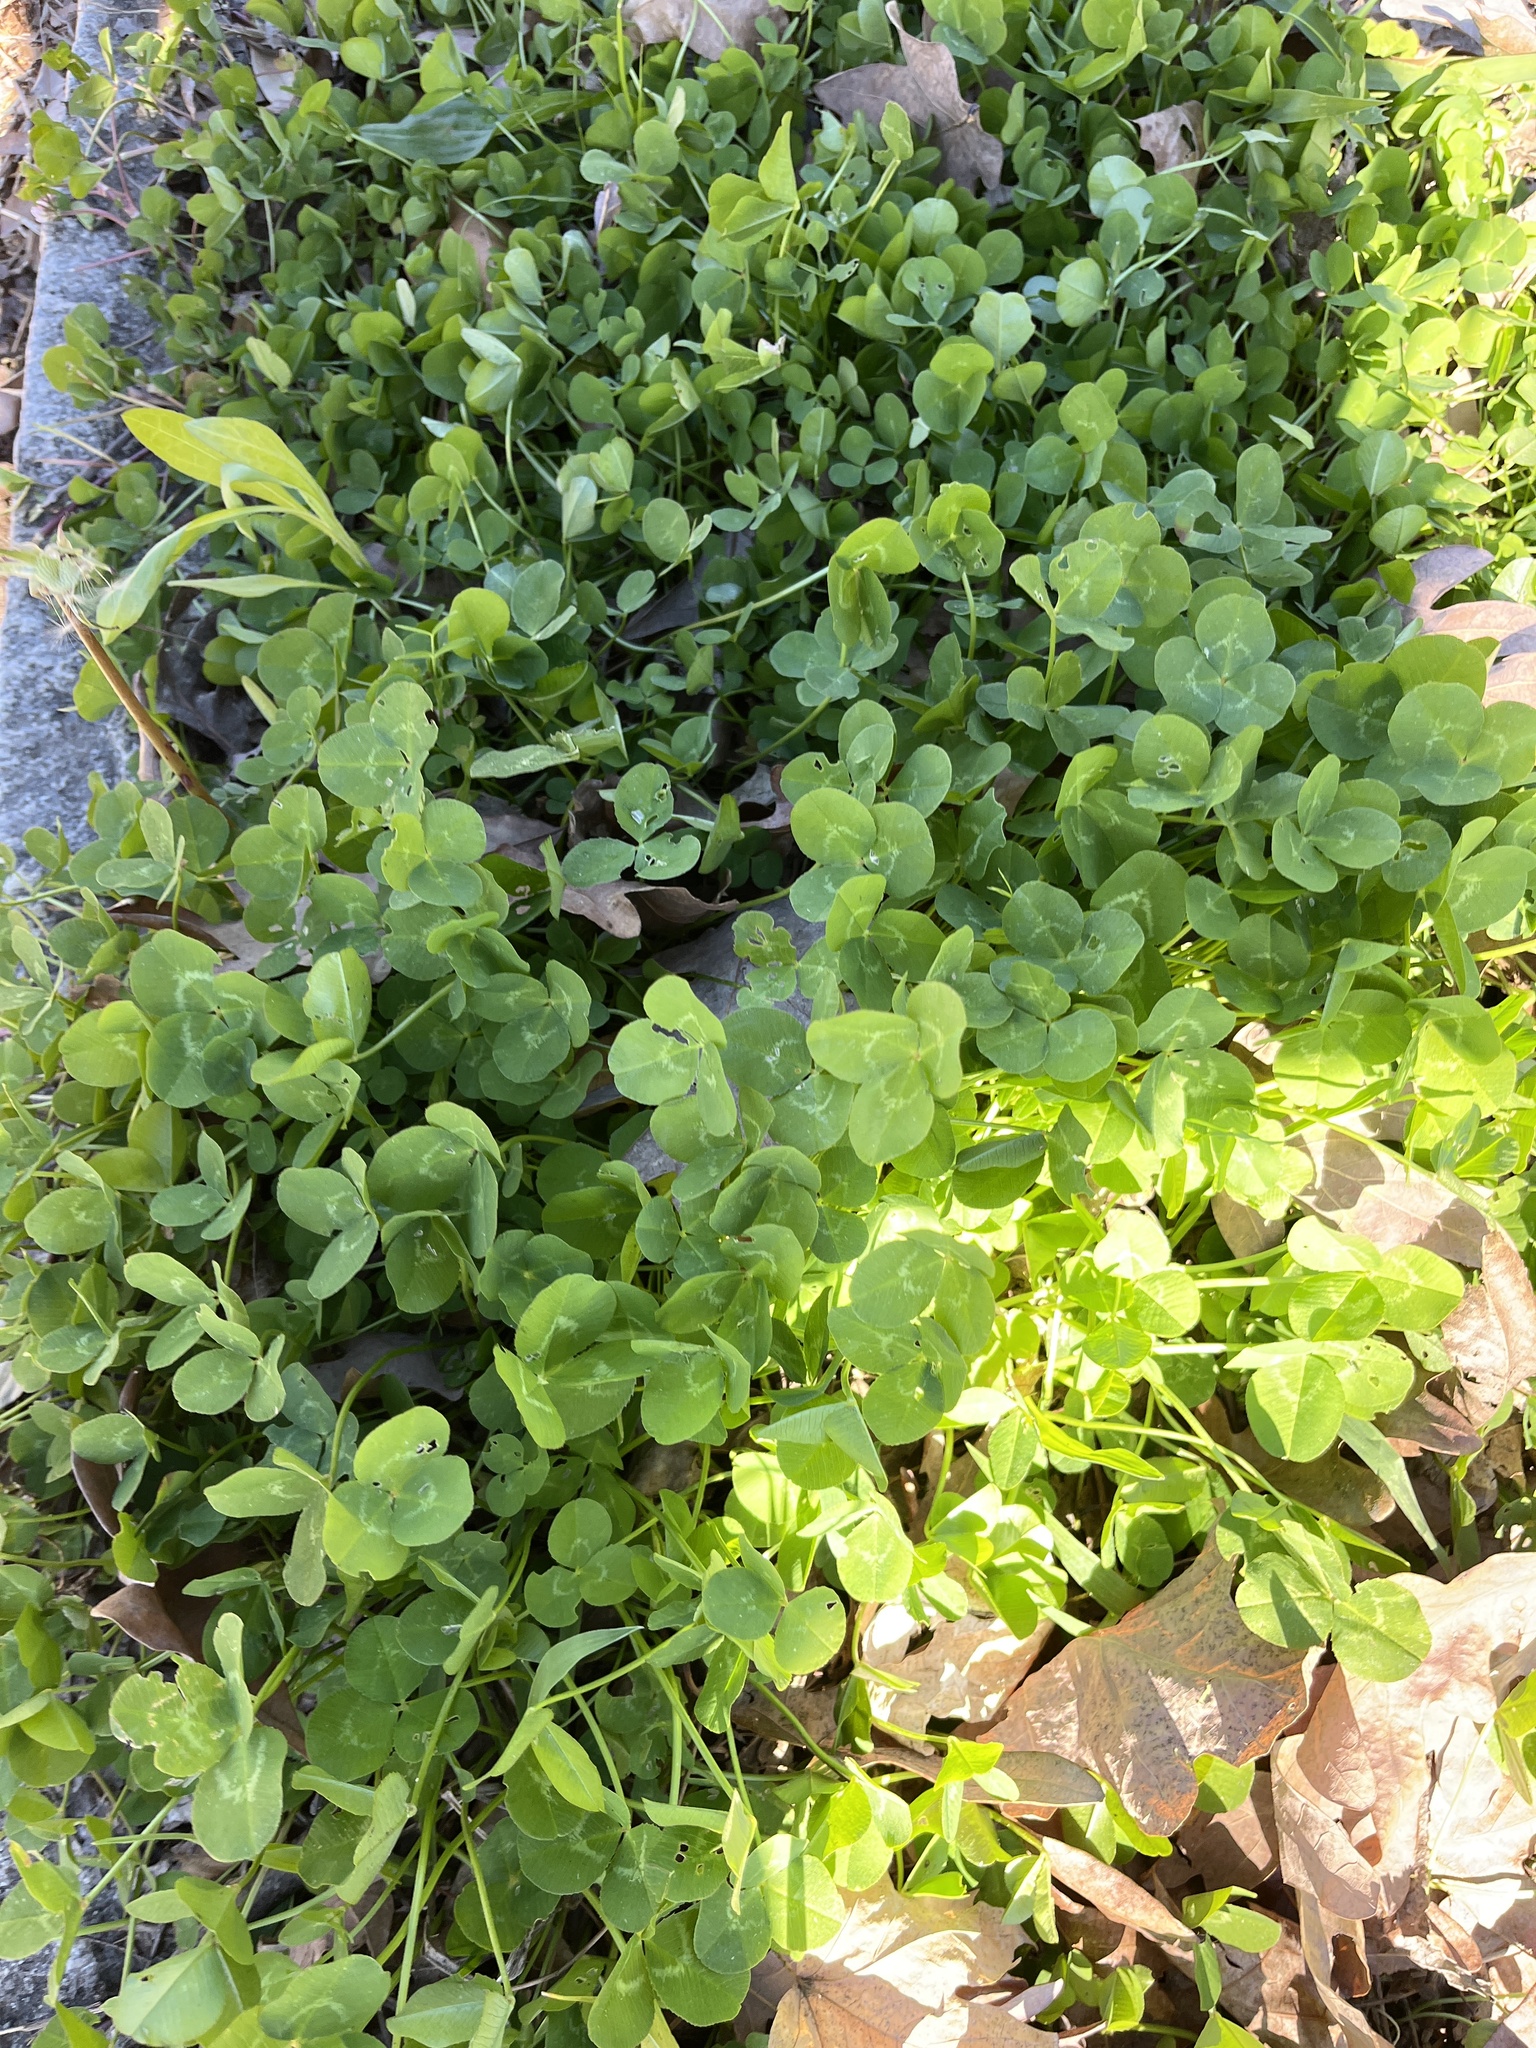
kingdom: Plantae
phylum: Tracheophyta
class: Magnoliopsida
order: Fabales
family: Fabaceae
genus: Trifolium
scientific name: Trifolium repens
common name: White clover
